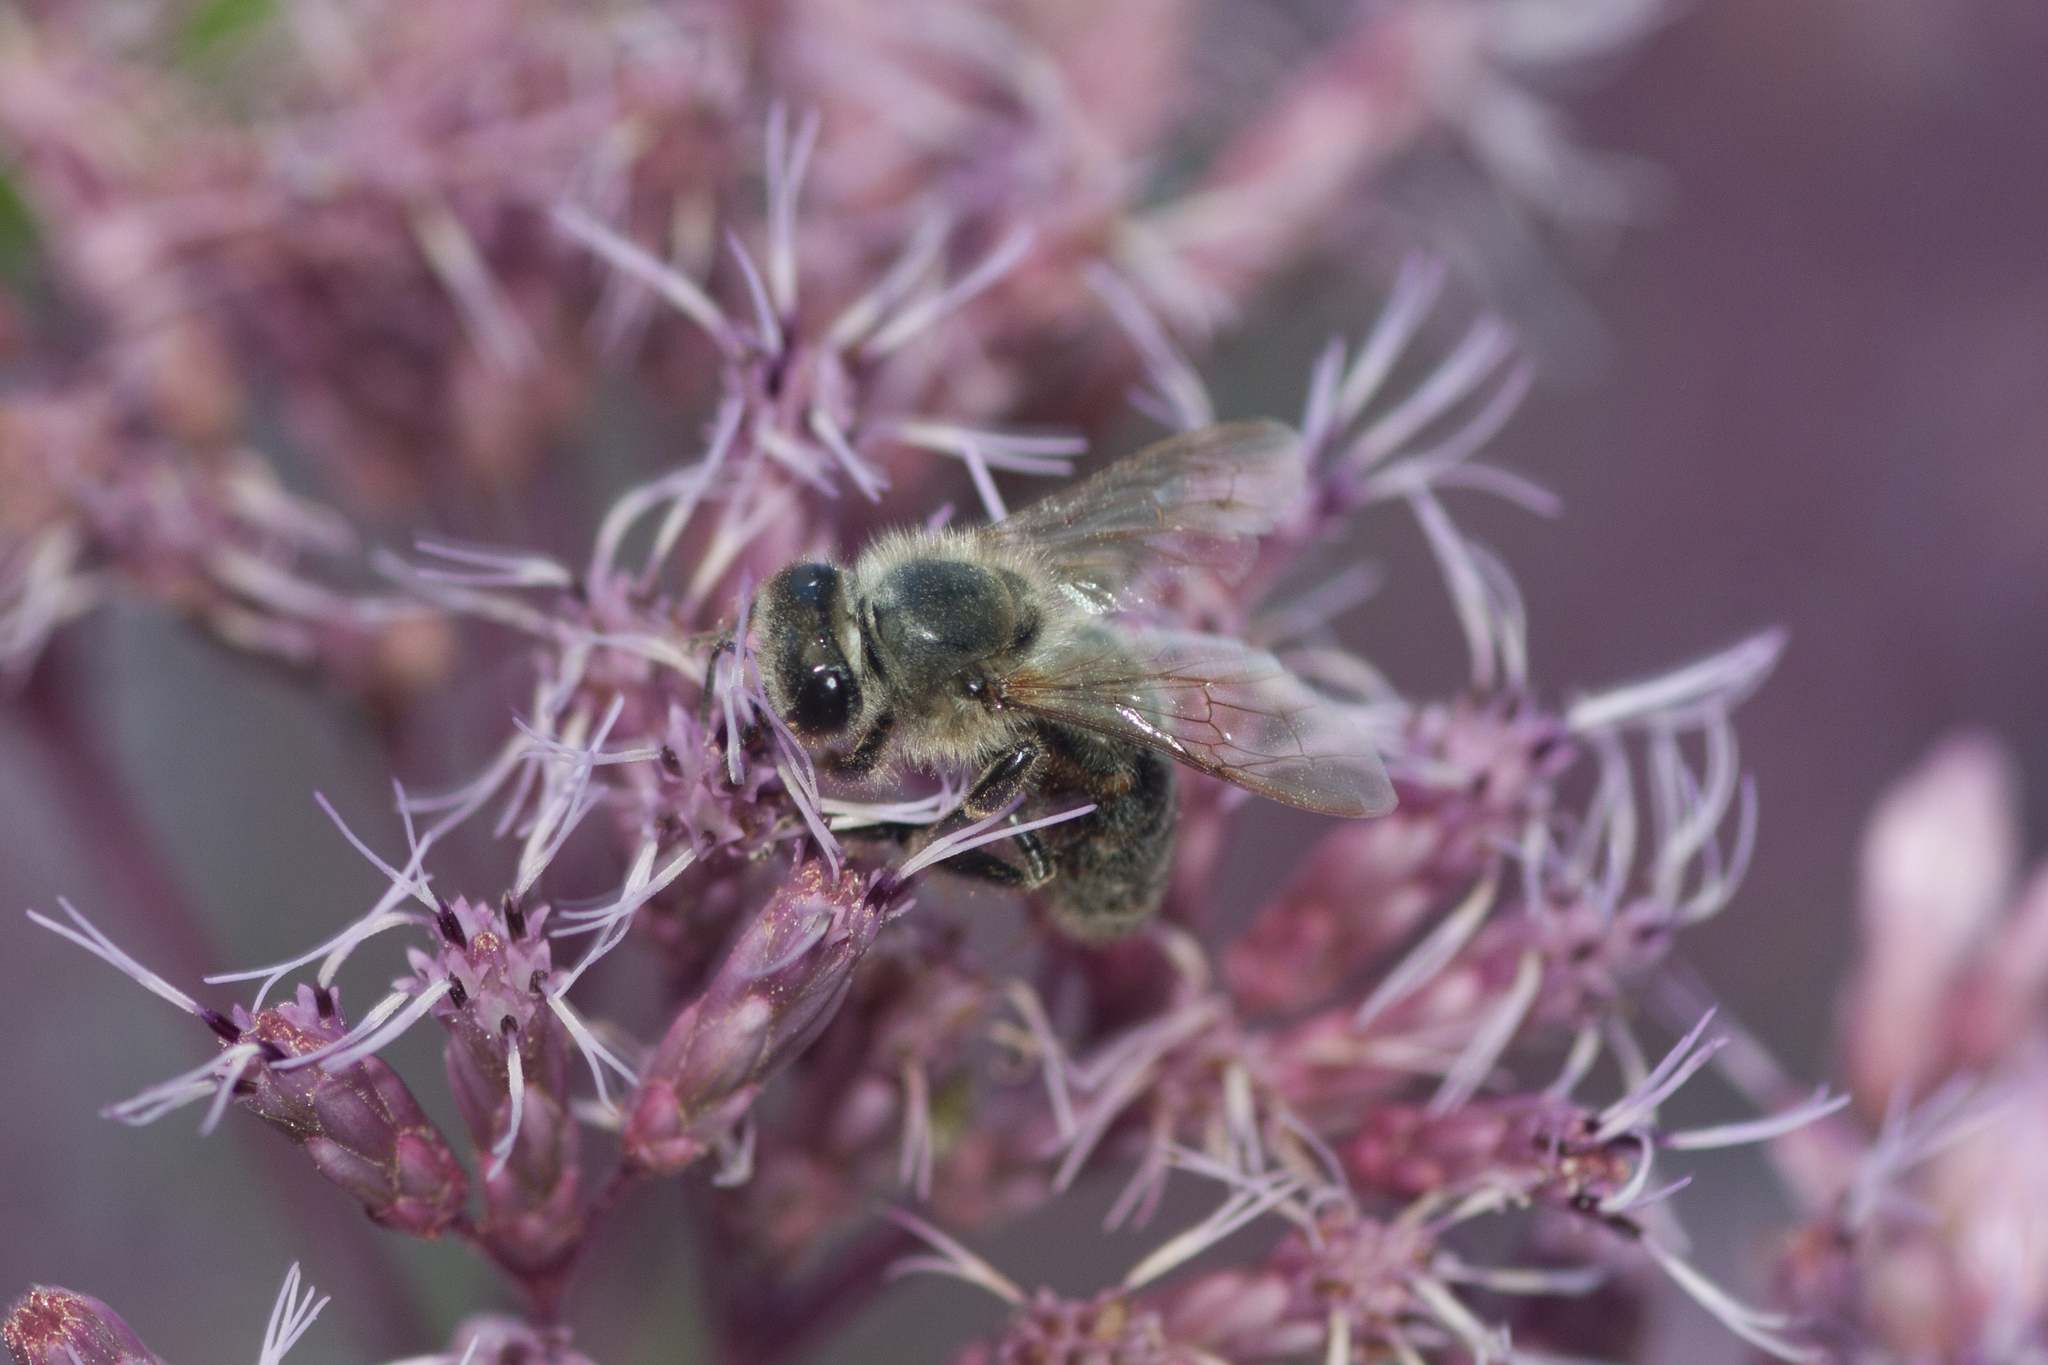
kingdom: Animalia
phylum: Arthropoda
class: Insecta
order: Hymenoptera
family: Apidae
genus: Apis
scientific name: Apis mellifera
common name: Honey bee
